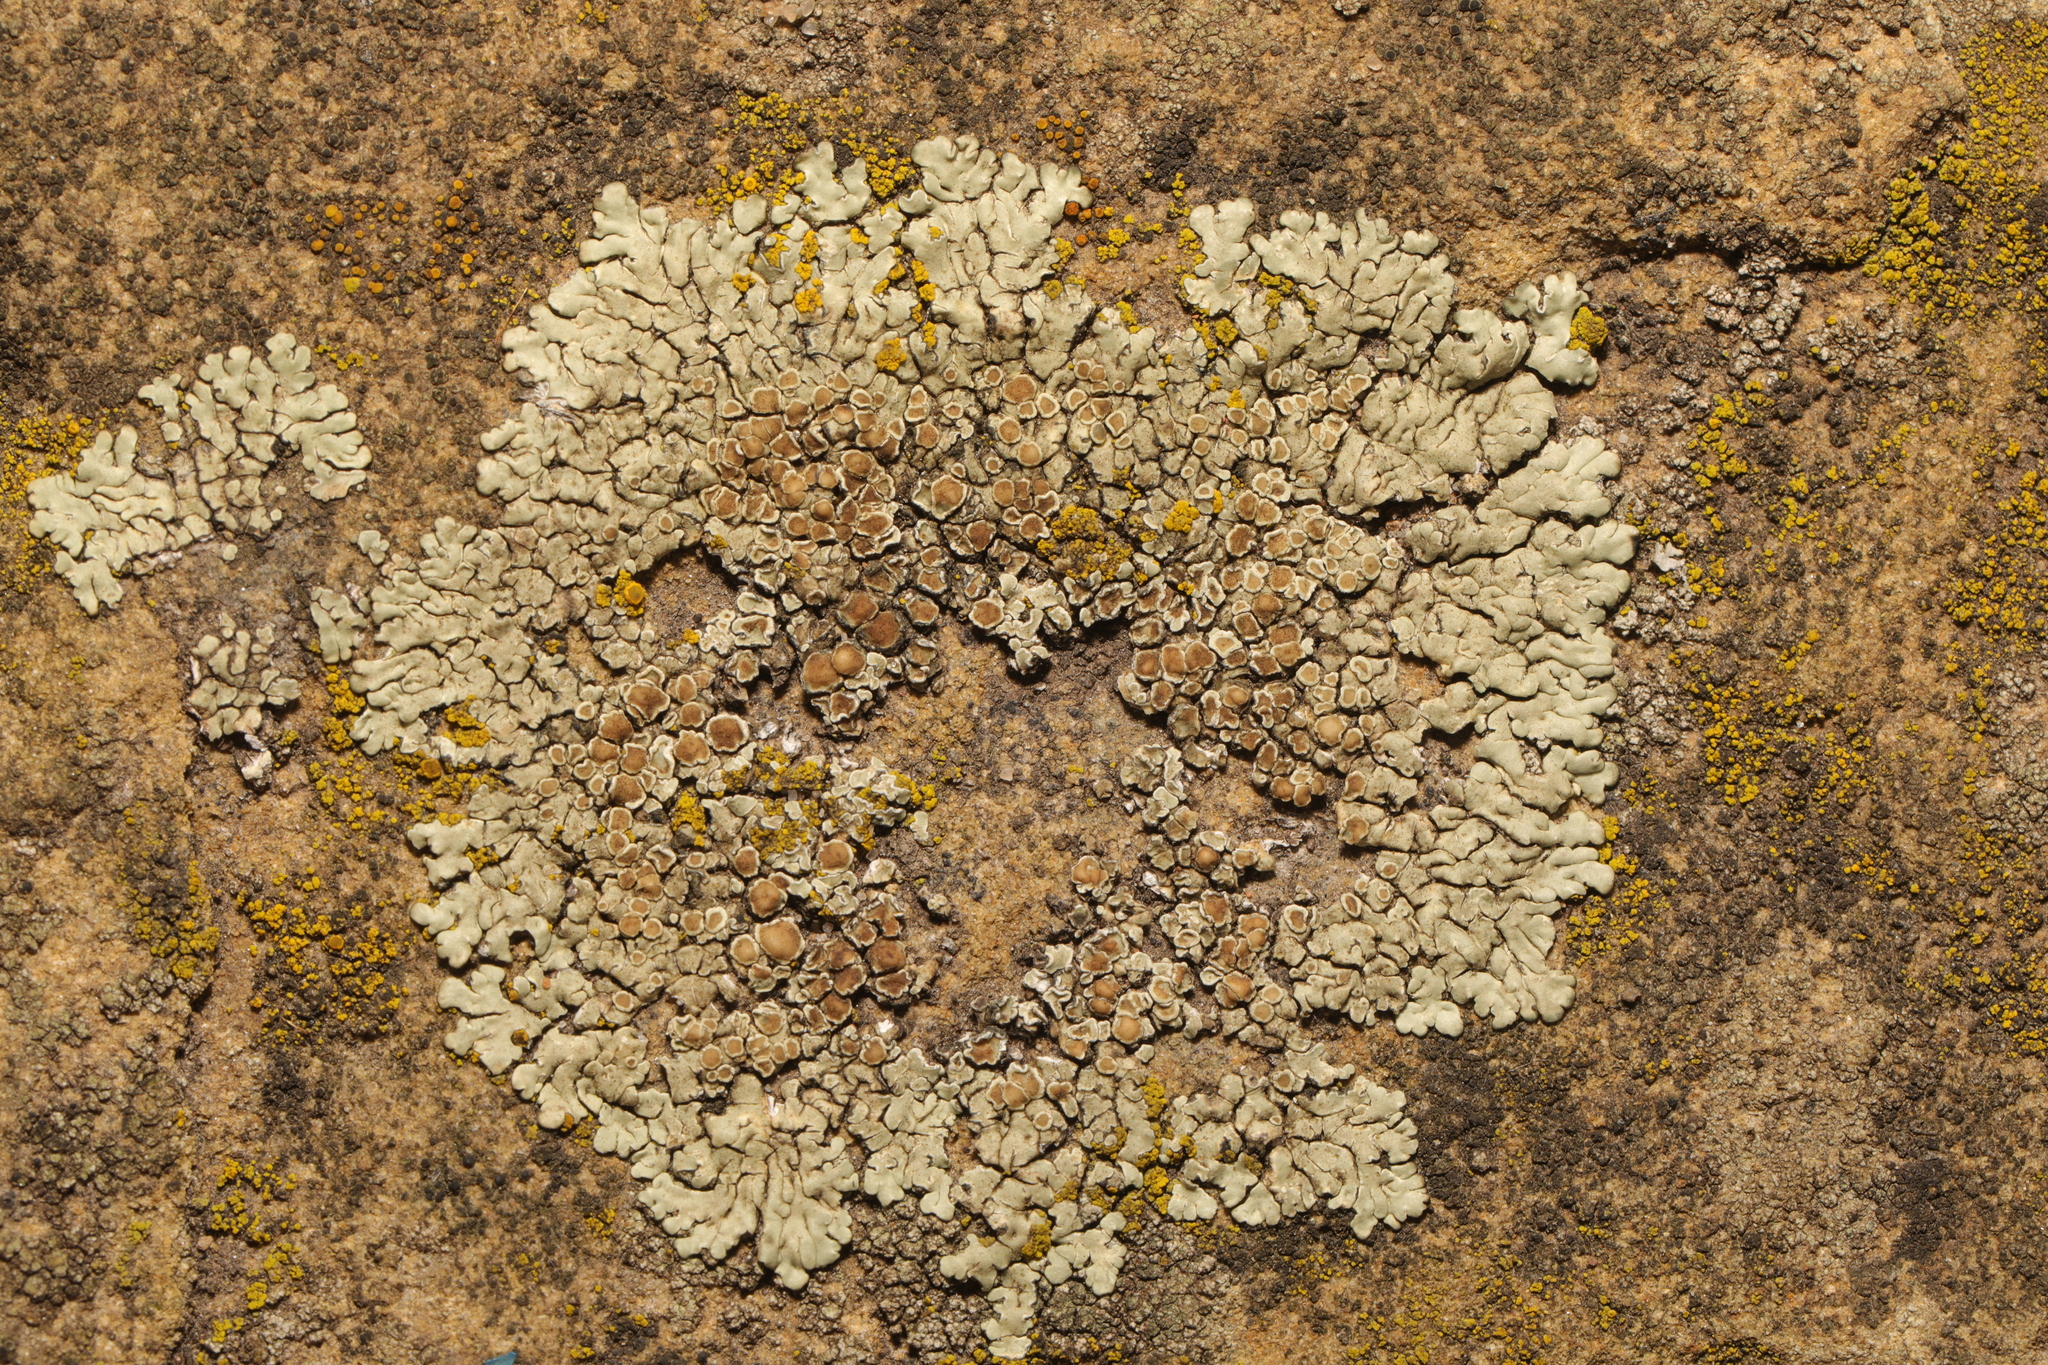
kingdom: Fungi
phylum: Ascomycota
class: Lecanoromycetes
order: Lecanorales
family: Lecanoraceae
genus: Protoparmeliopsis
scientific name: Protoparmeliopsis muralis
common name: Stonewall rim lichen
